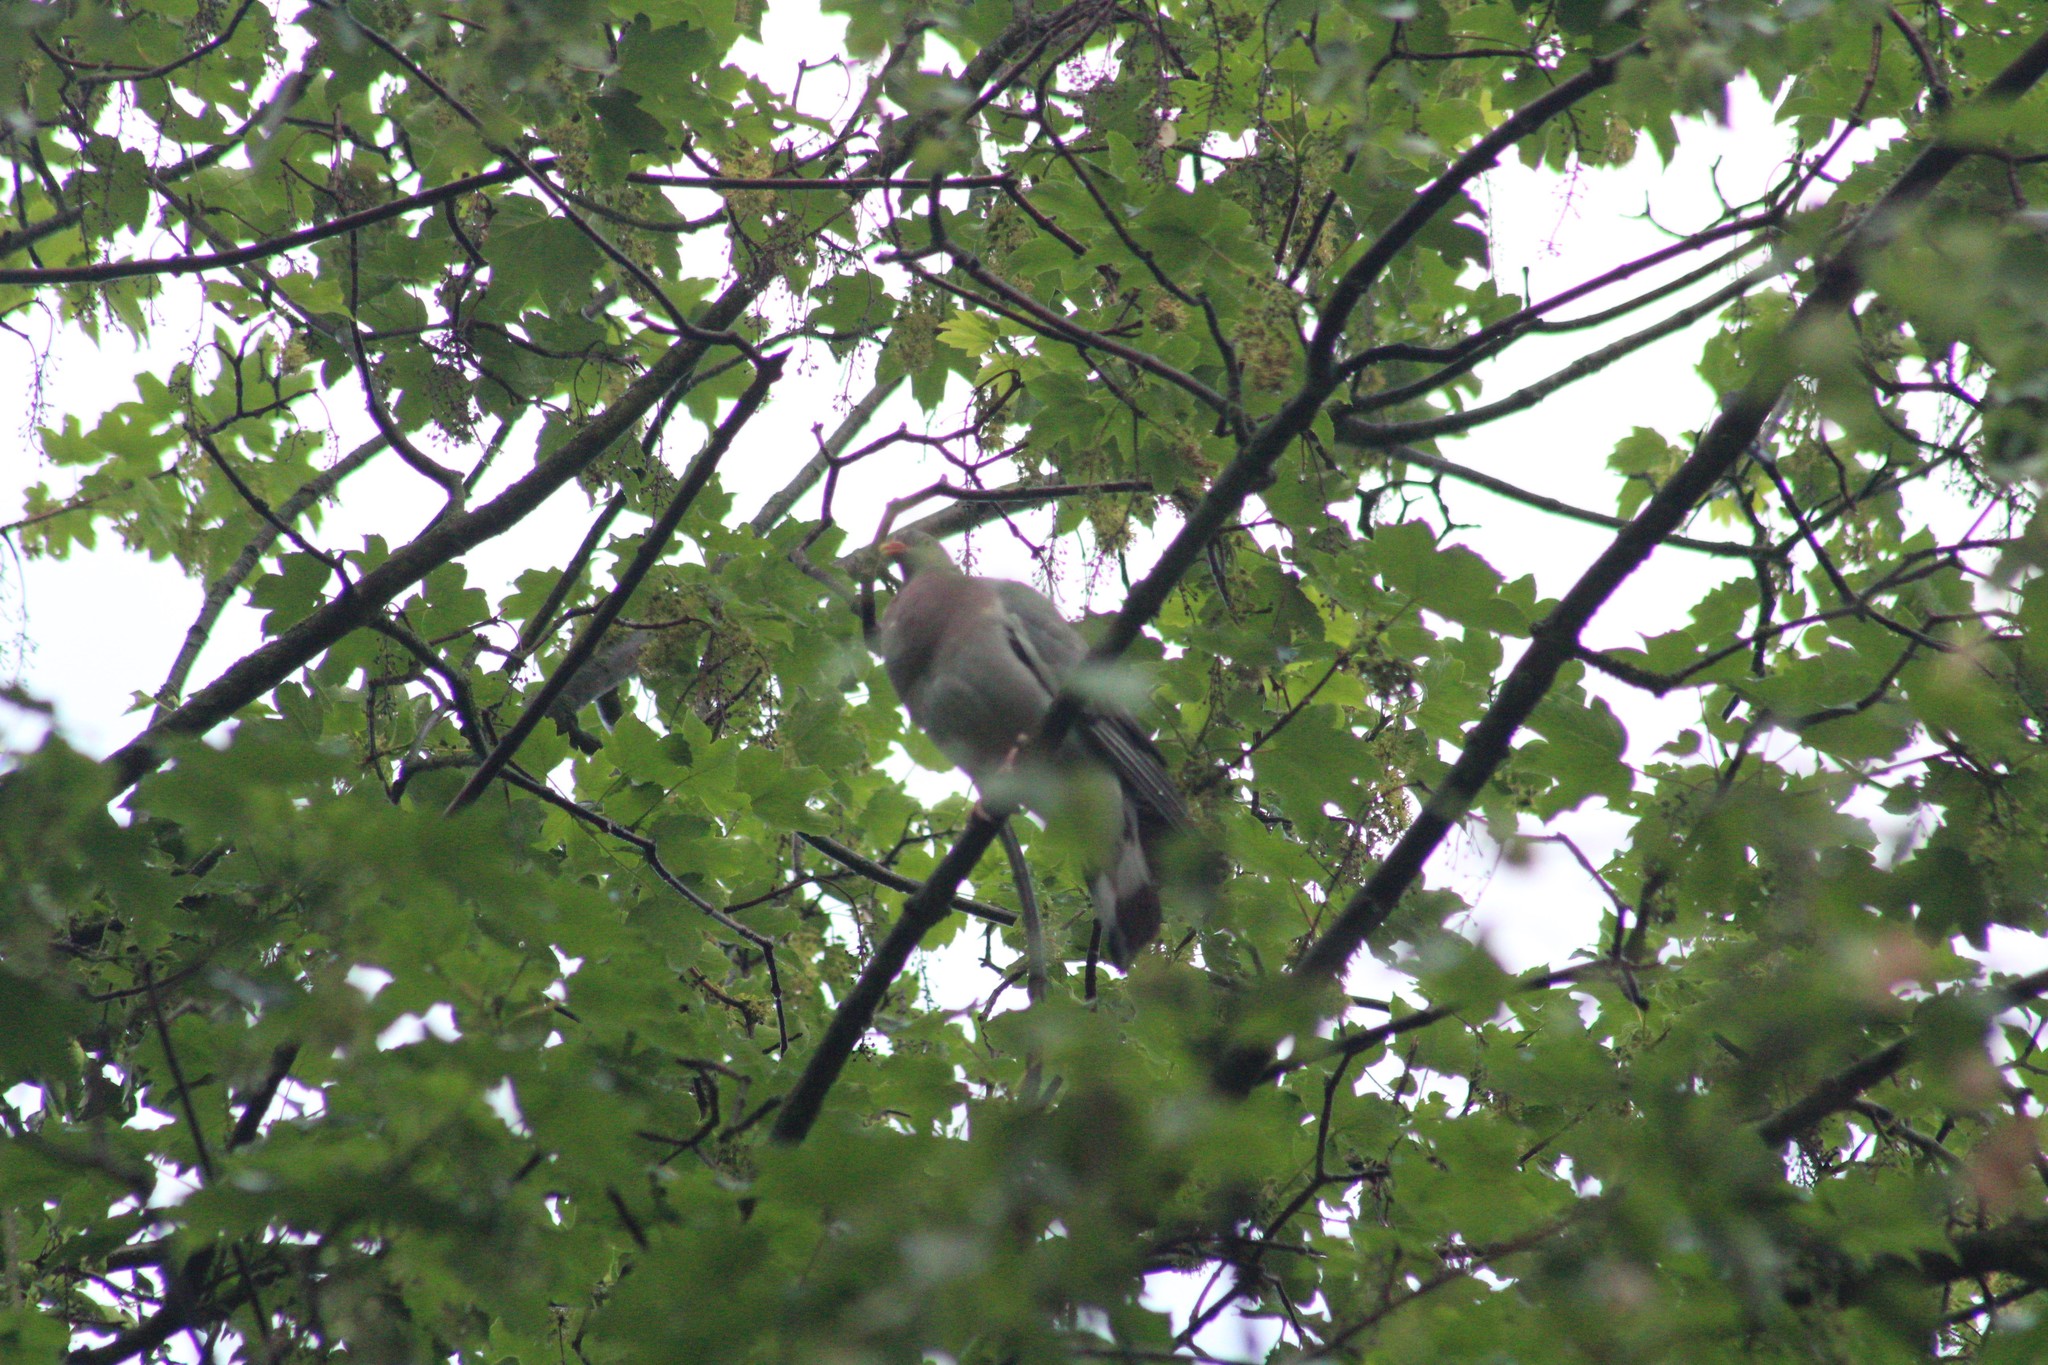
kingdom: Animalia
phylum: Chordata
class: Aves
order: Columbiformes
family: Columbidae
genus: Columba
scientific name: Columba palumbus
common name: Common wood pigeon
